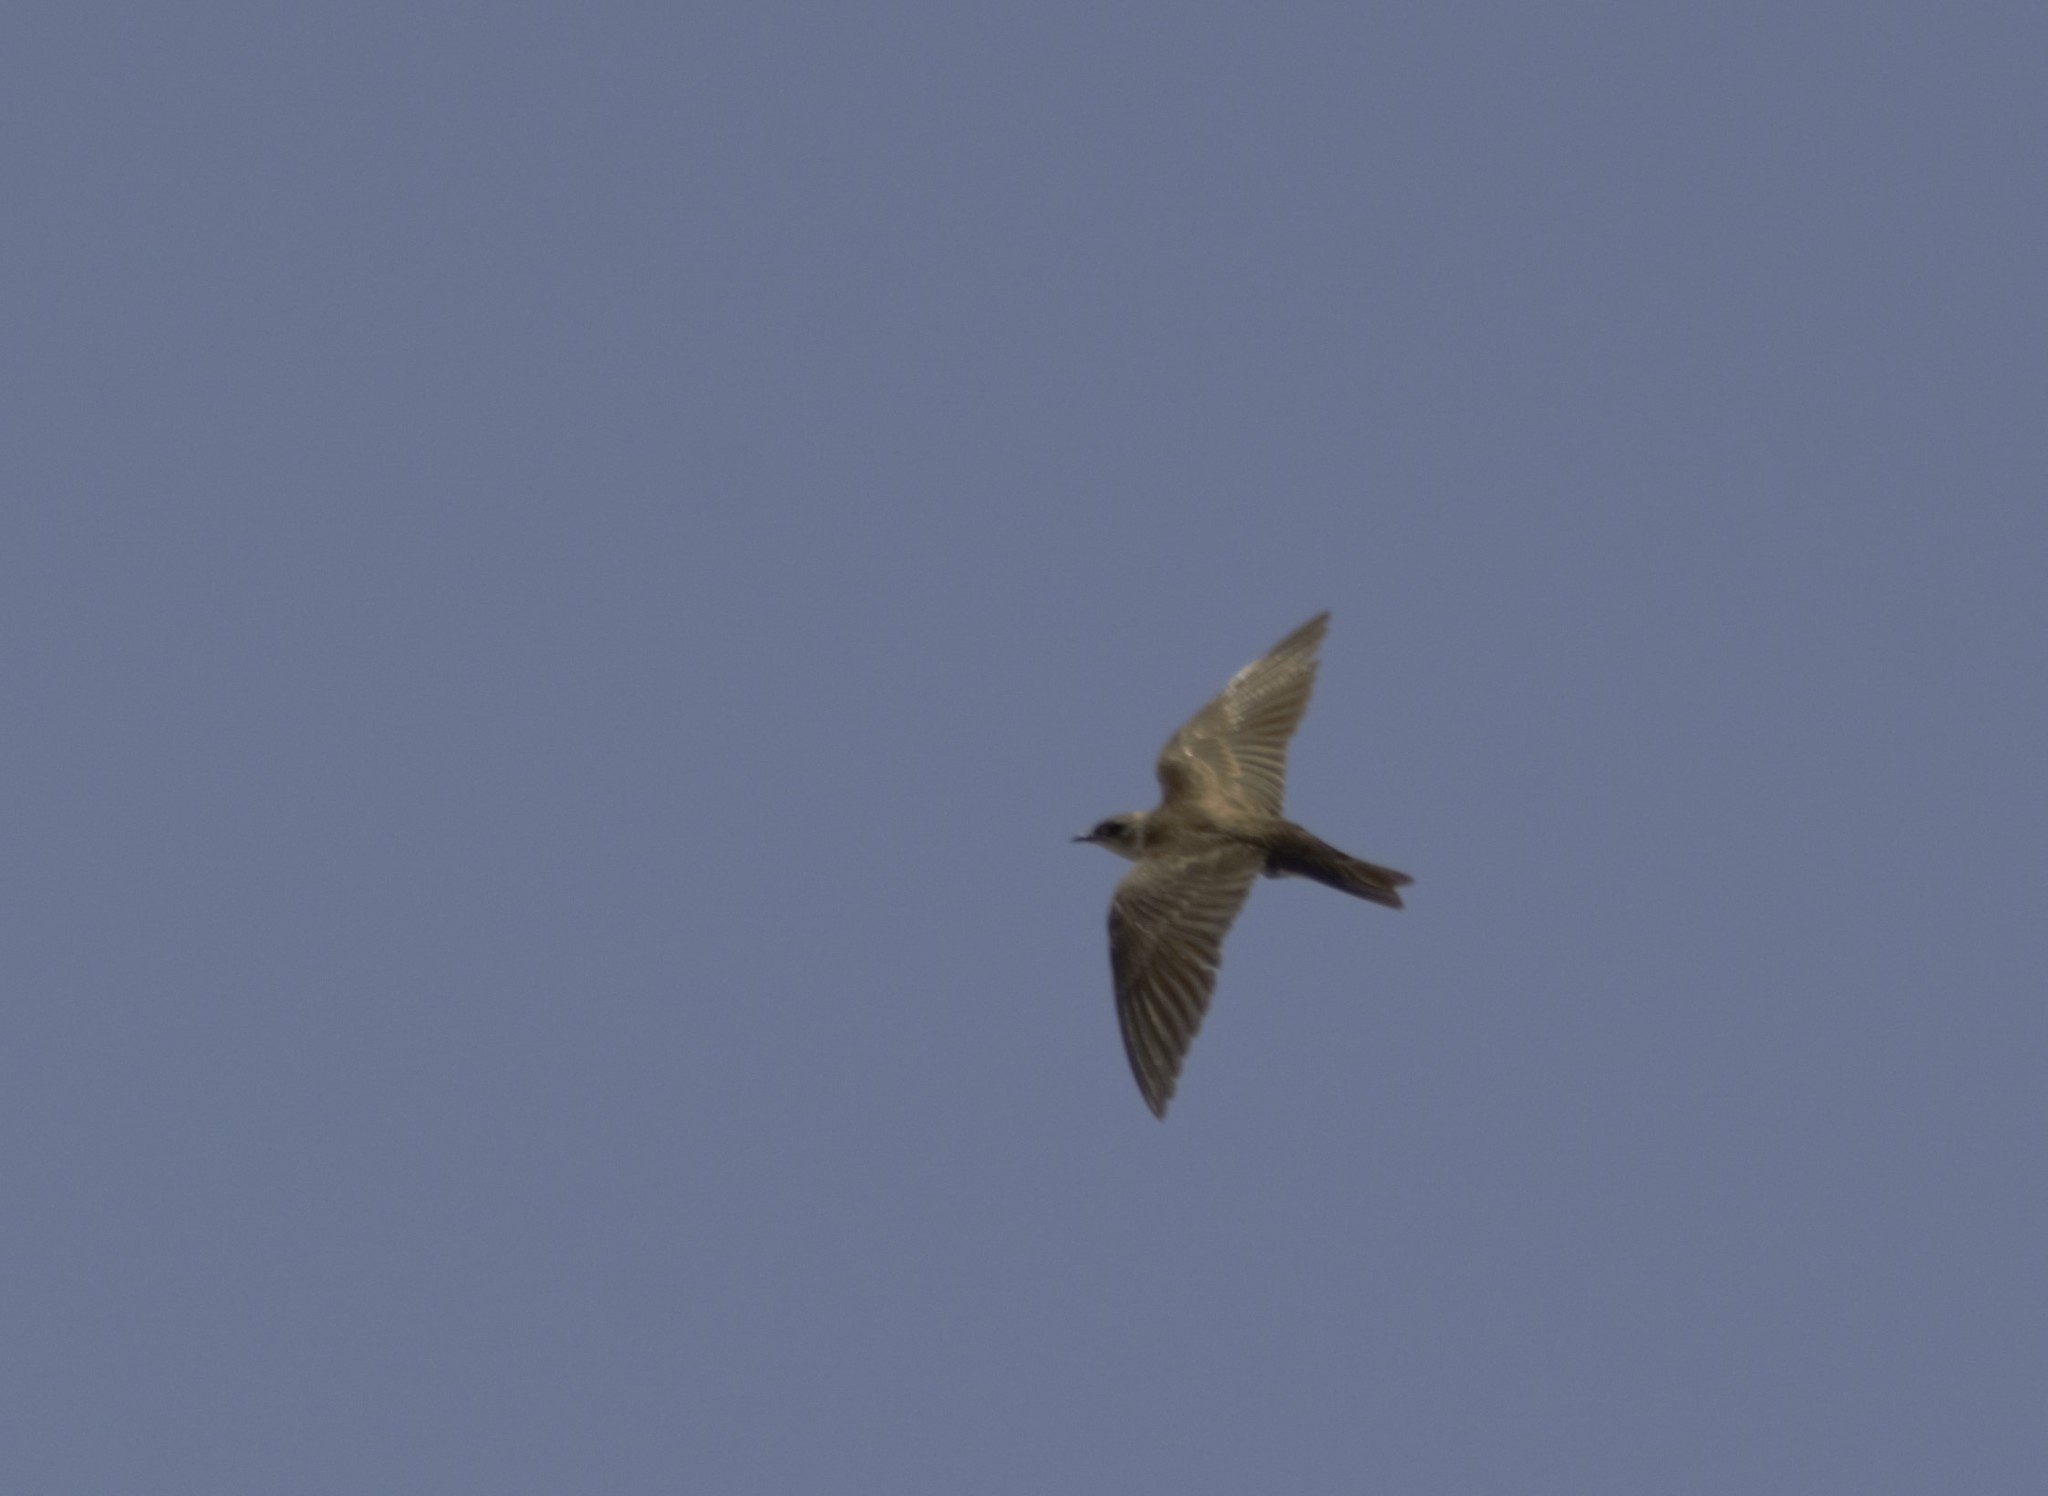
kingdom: Animalia
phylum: Chordata
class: Aves
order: Passeriformes
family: Hirundinidae
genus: Progne
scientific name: Progne tapera
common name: Brown-chested martin
